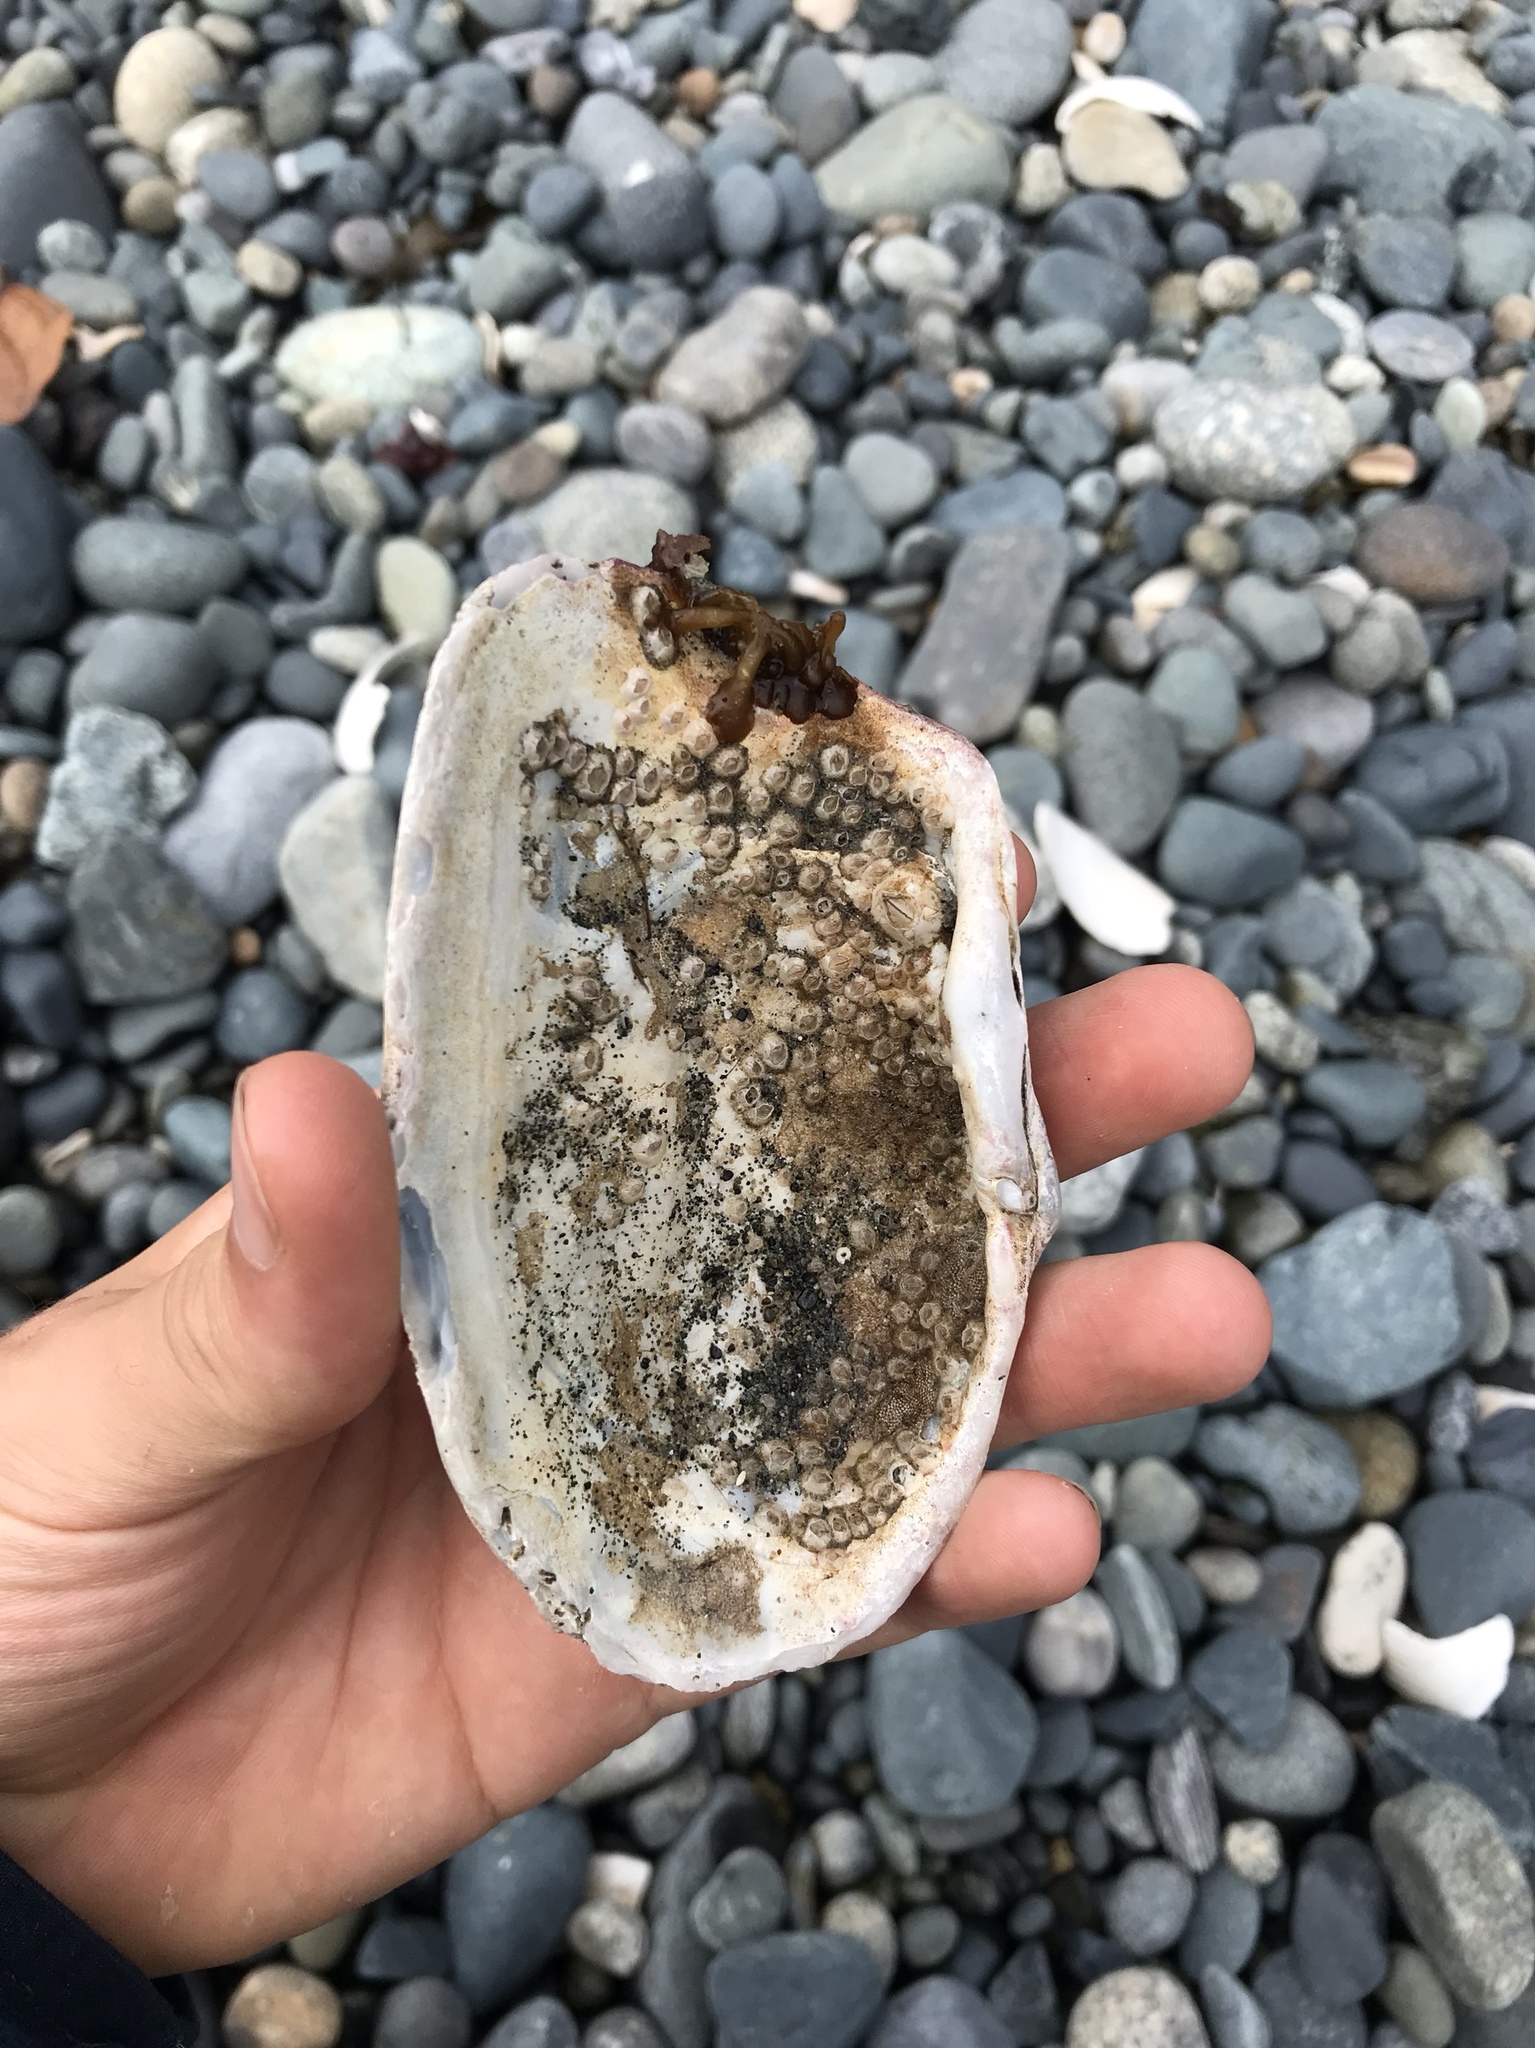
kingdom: Animalia
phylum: Mollusca
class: Bivalvia
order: Adapedonta
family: Hiatellidae
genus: Panopea
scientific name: Panopea generosa
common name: Geoduck
